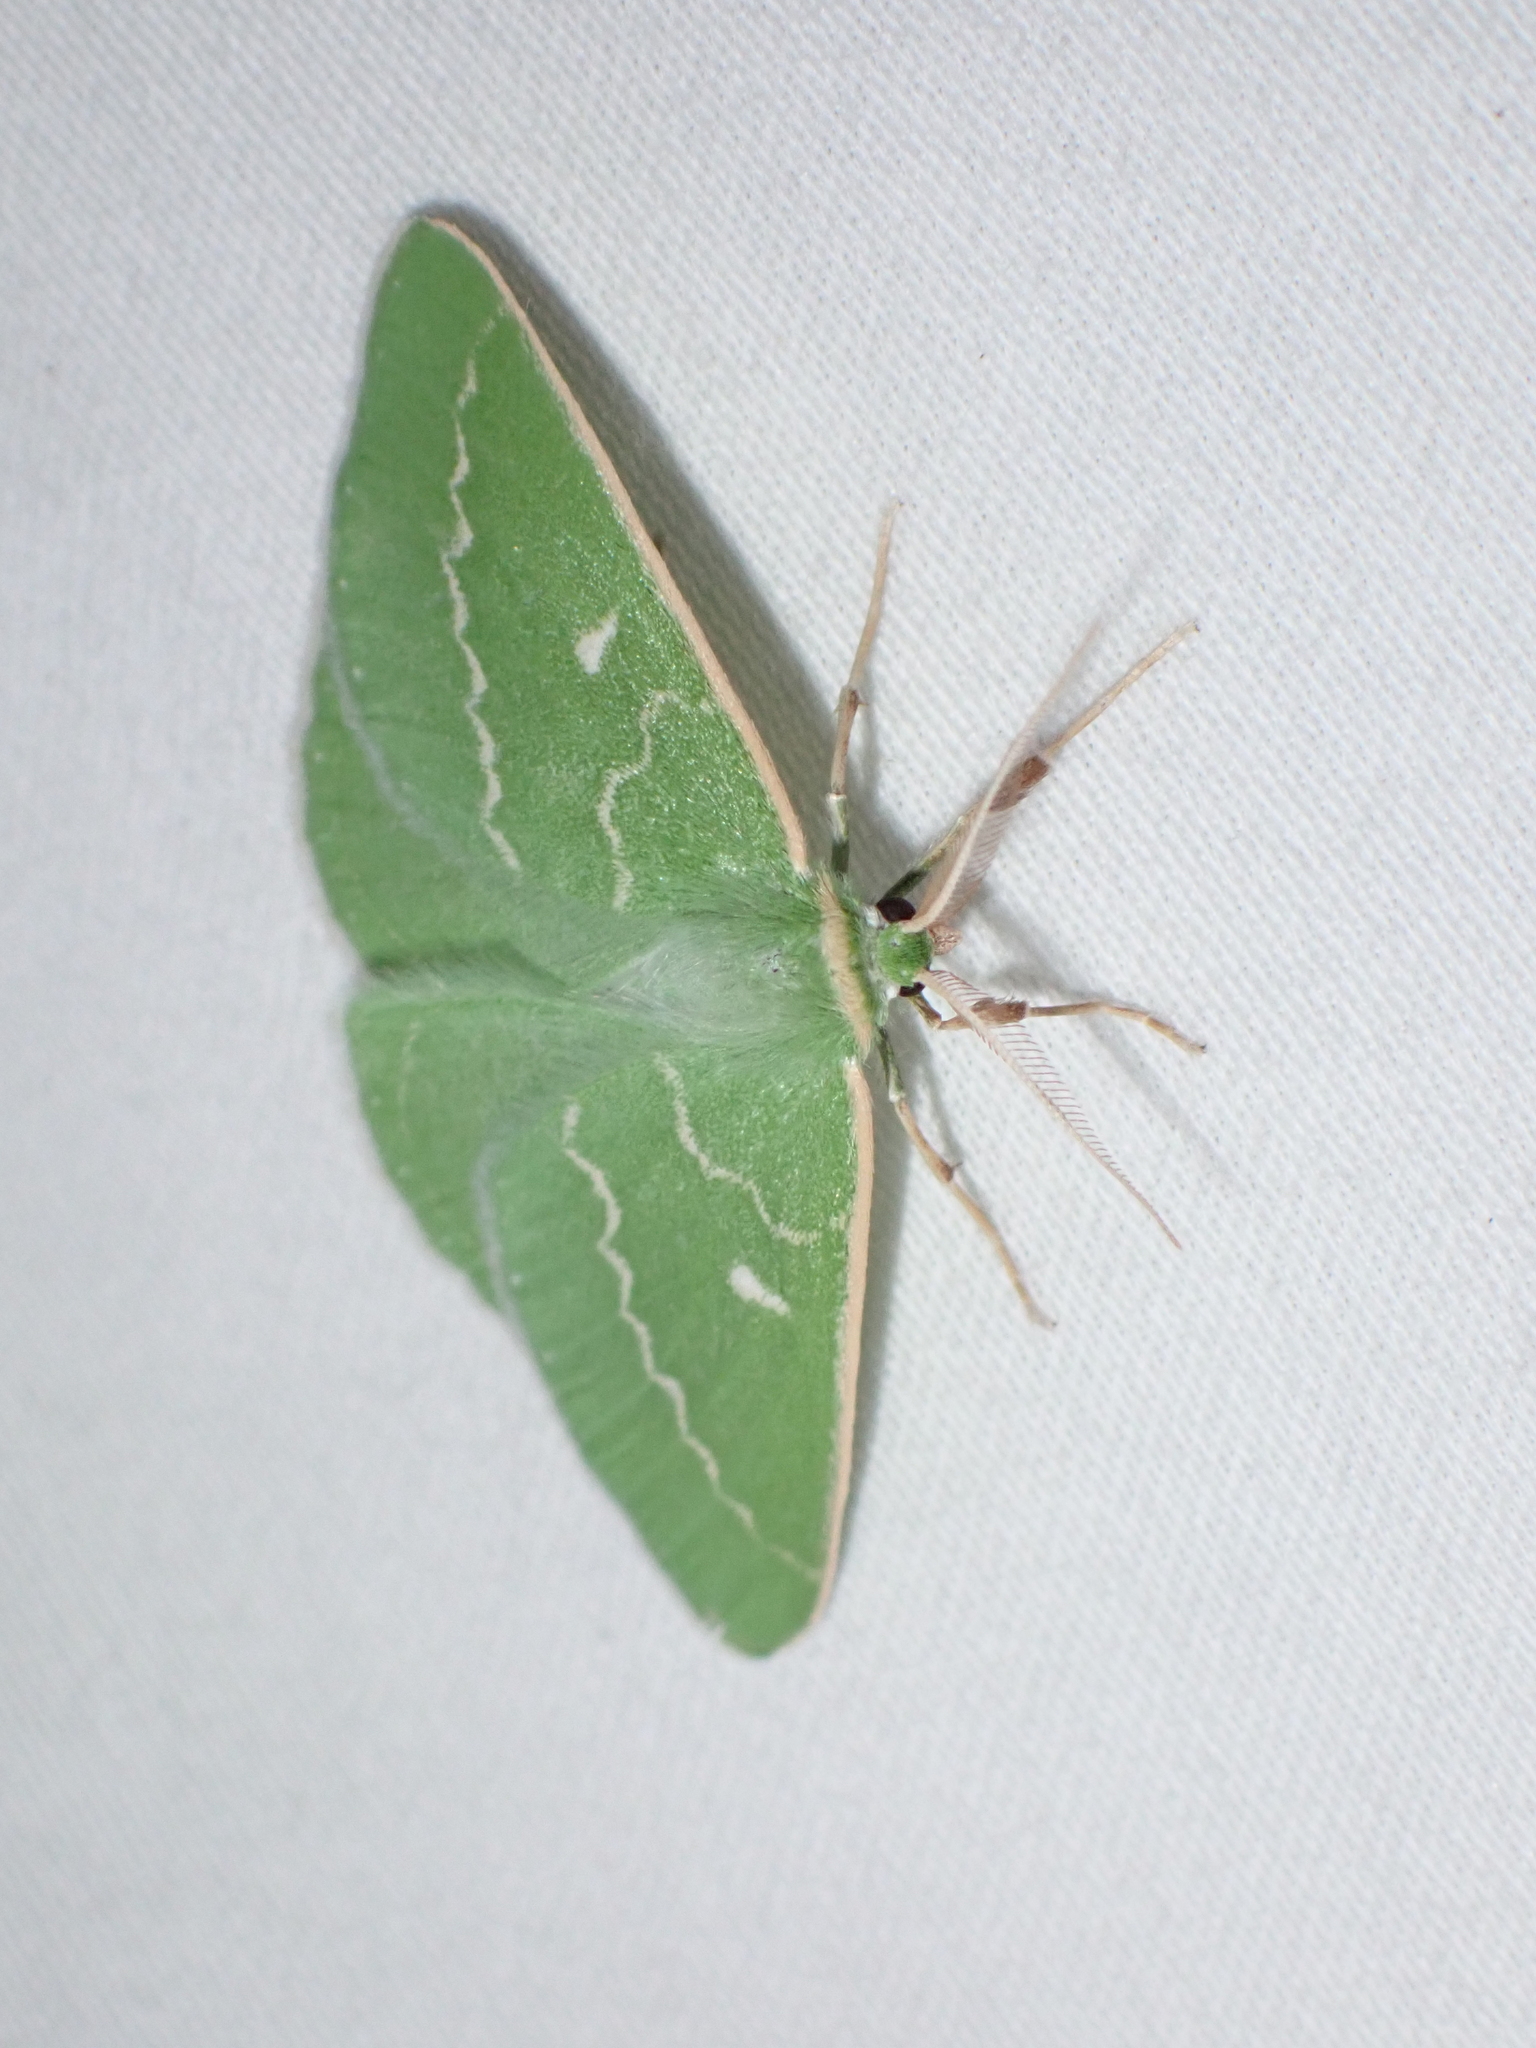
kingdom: Animalia
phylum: Arthropoda
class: Insecta
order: Lepidoptera
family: Geometridae
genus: Thetidia
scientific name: Thetidia smaragdaria
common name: Essex emerald
